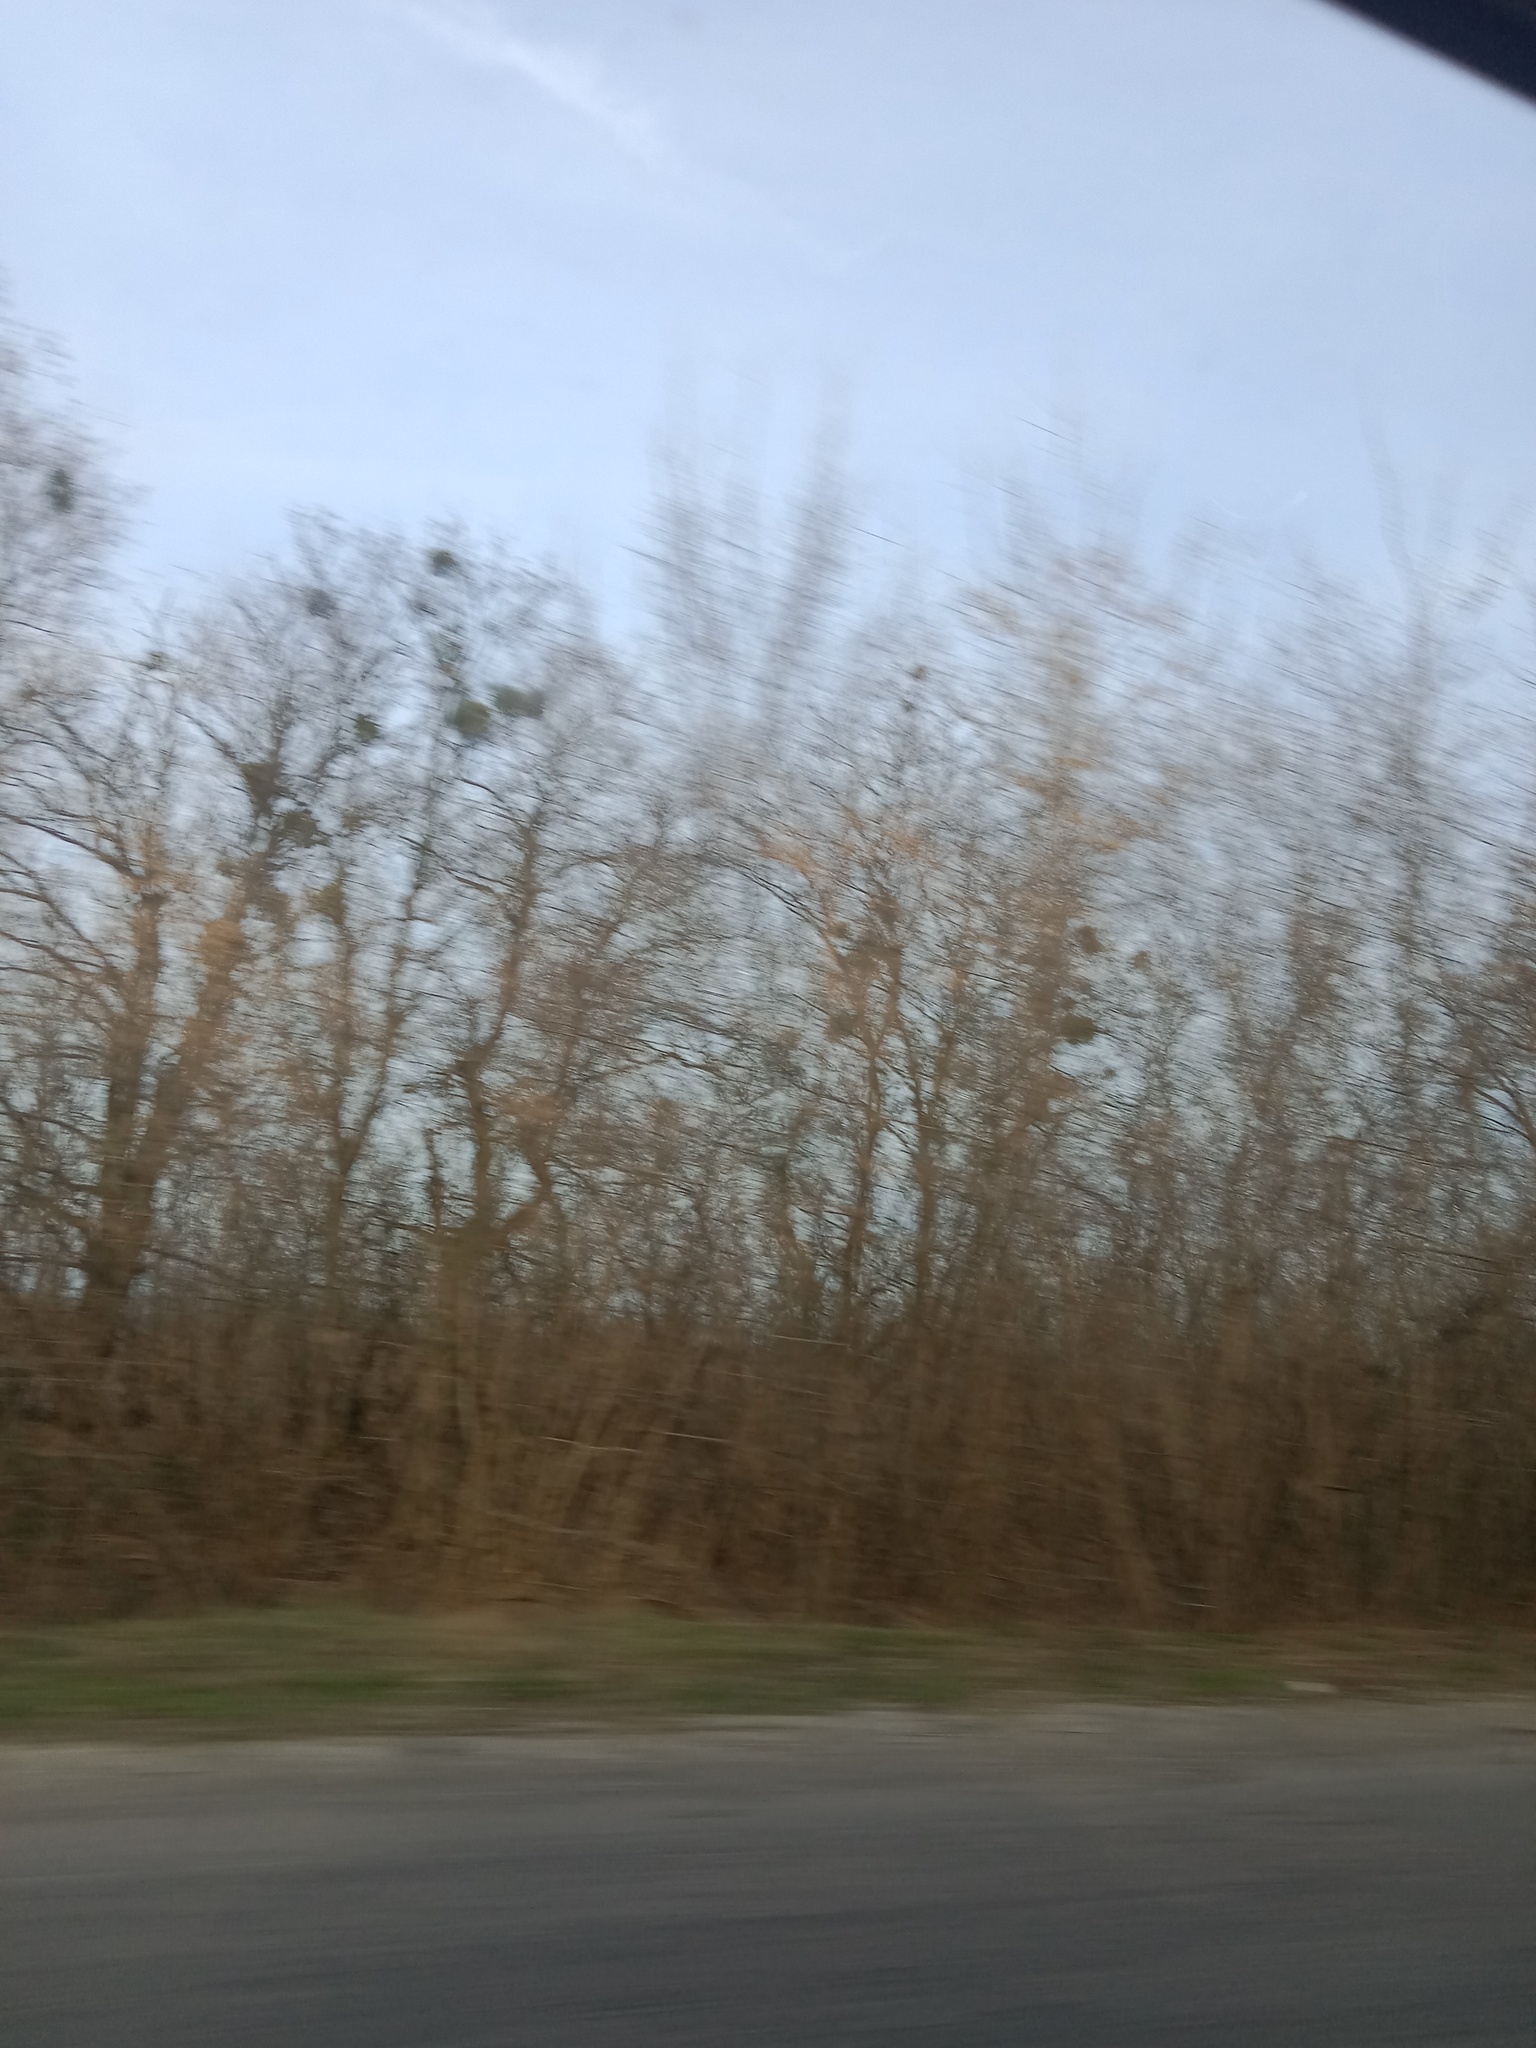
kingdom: Plantae
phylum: Tracheophyta
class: Magnoliopsida
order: Santalales
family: Viscaceae
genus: Viscum
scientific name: Viscum album
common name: Mistletoe
